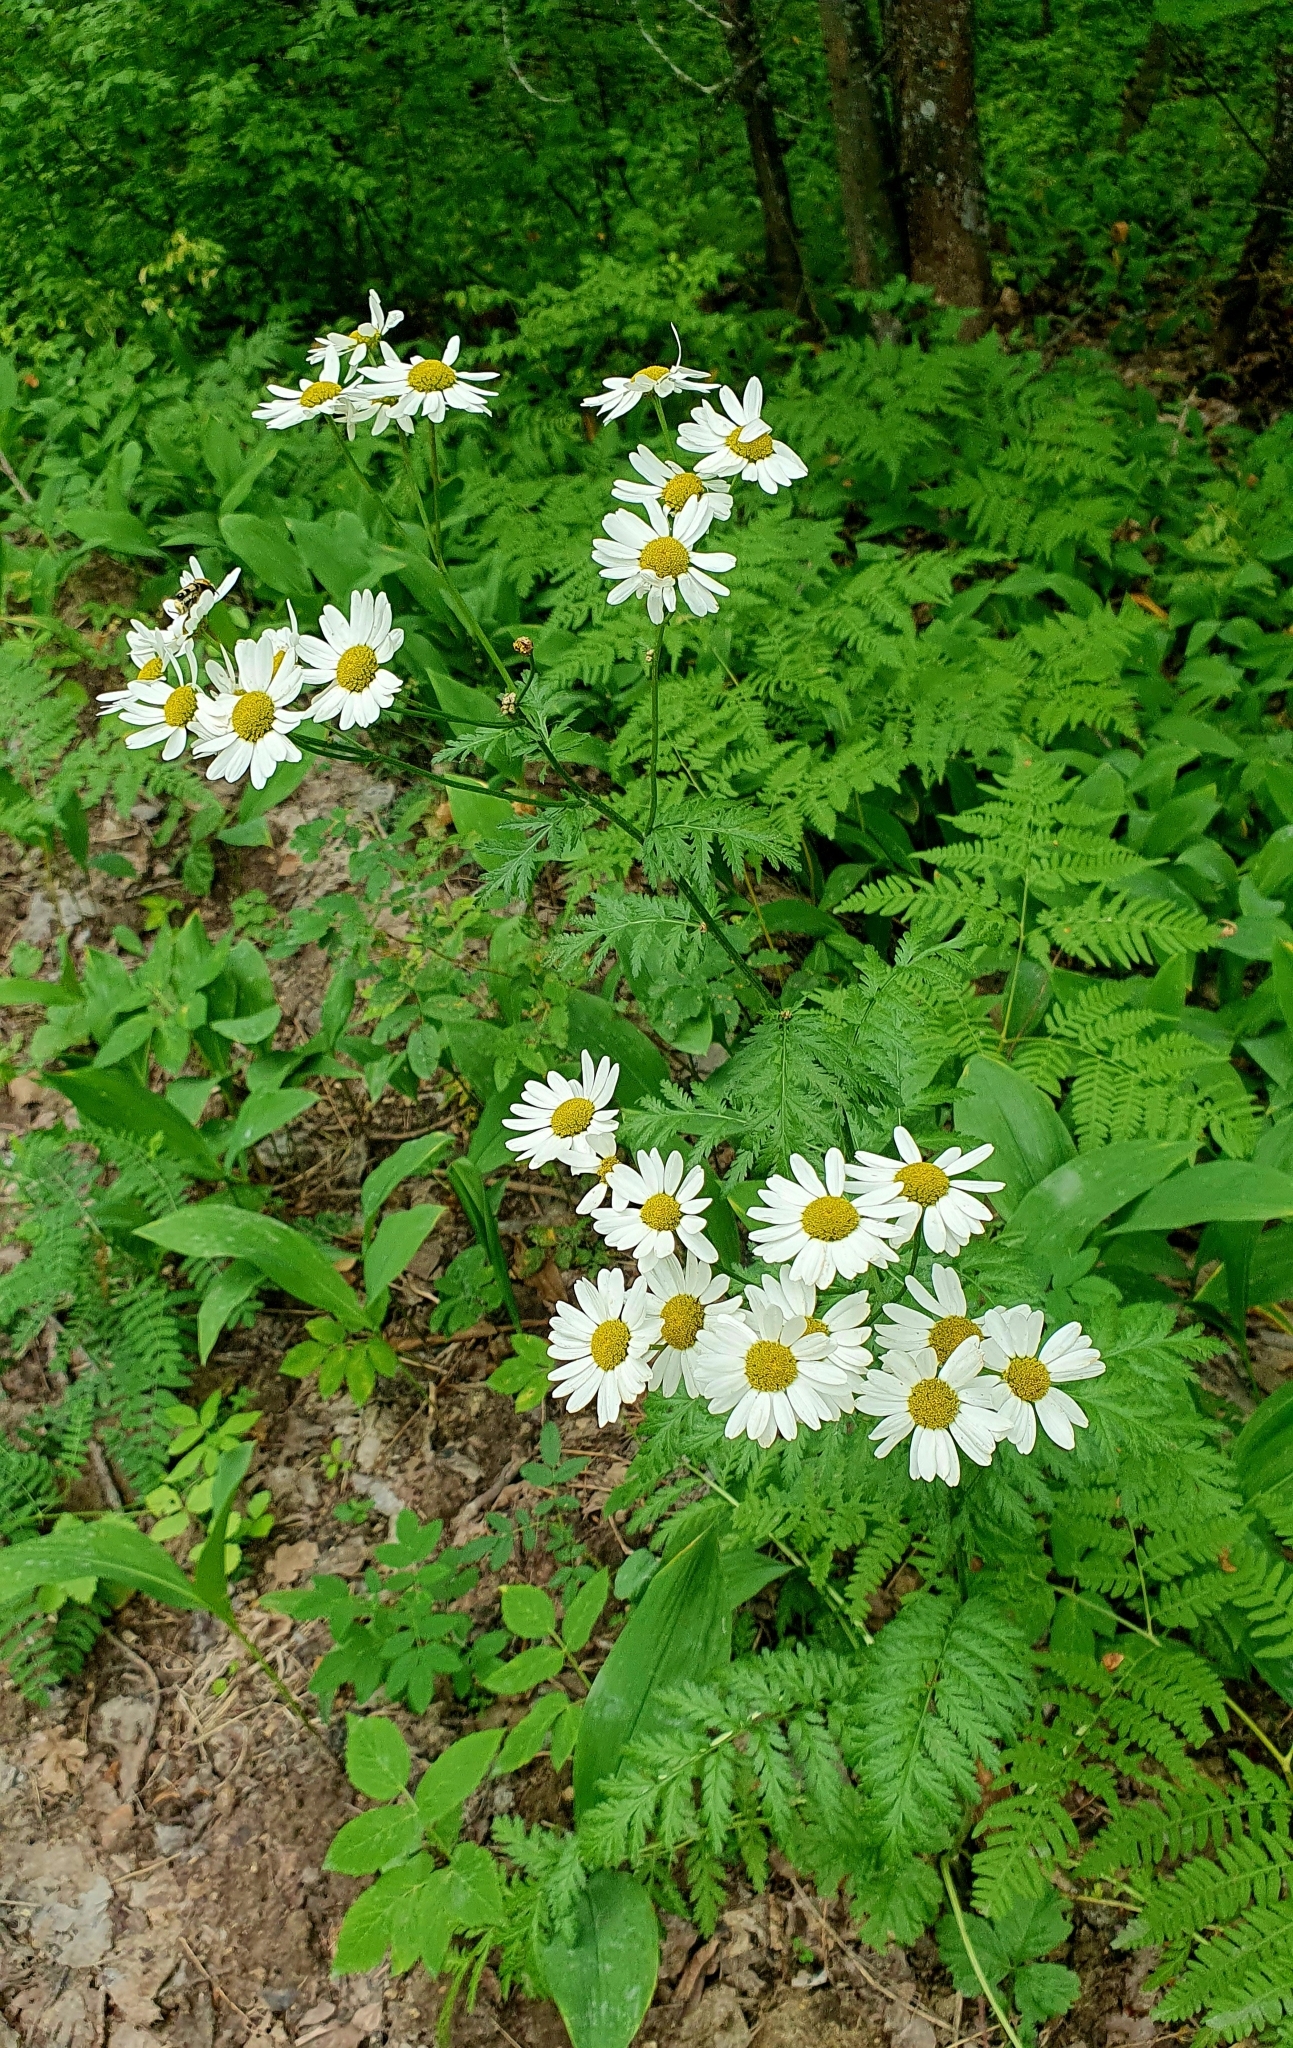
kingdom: Plantae
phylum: Tracheophyta
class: Magnoliopsida
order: Asterales
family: Asteraceae
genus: Tanacetum
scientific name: Tanacetum corymbosum
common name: Scentless feverfew
